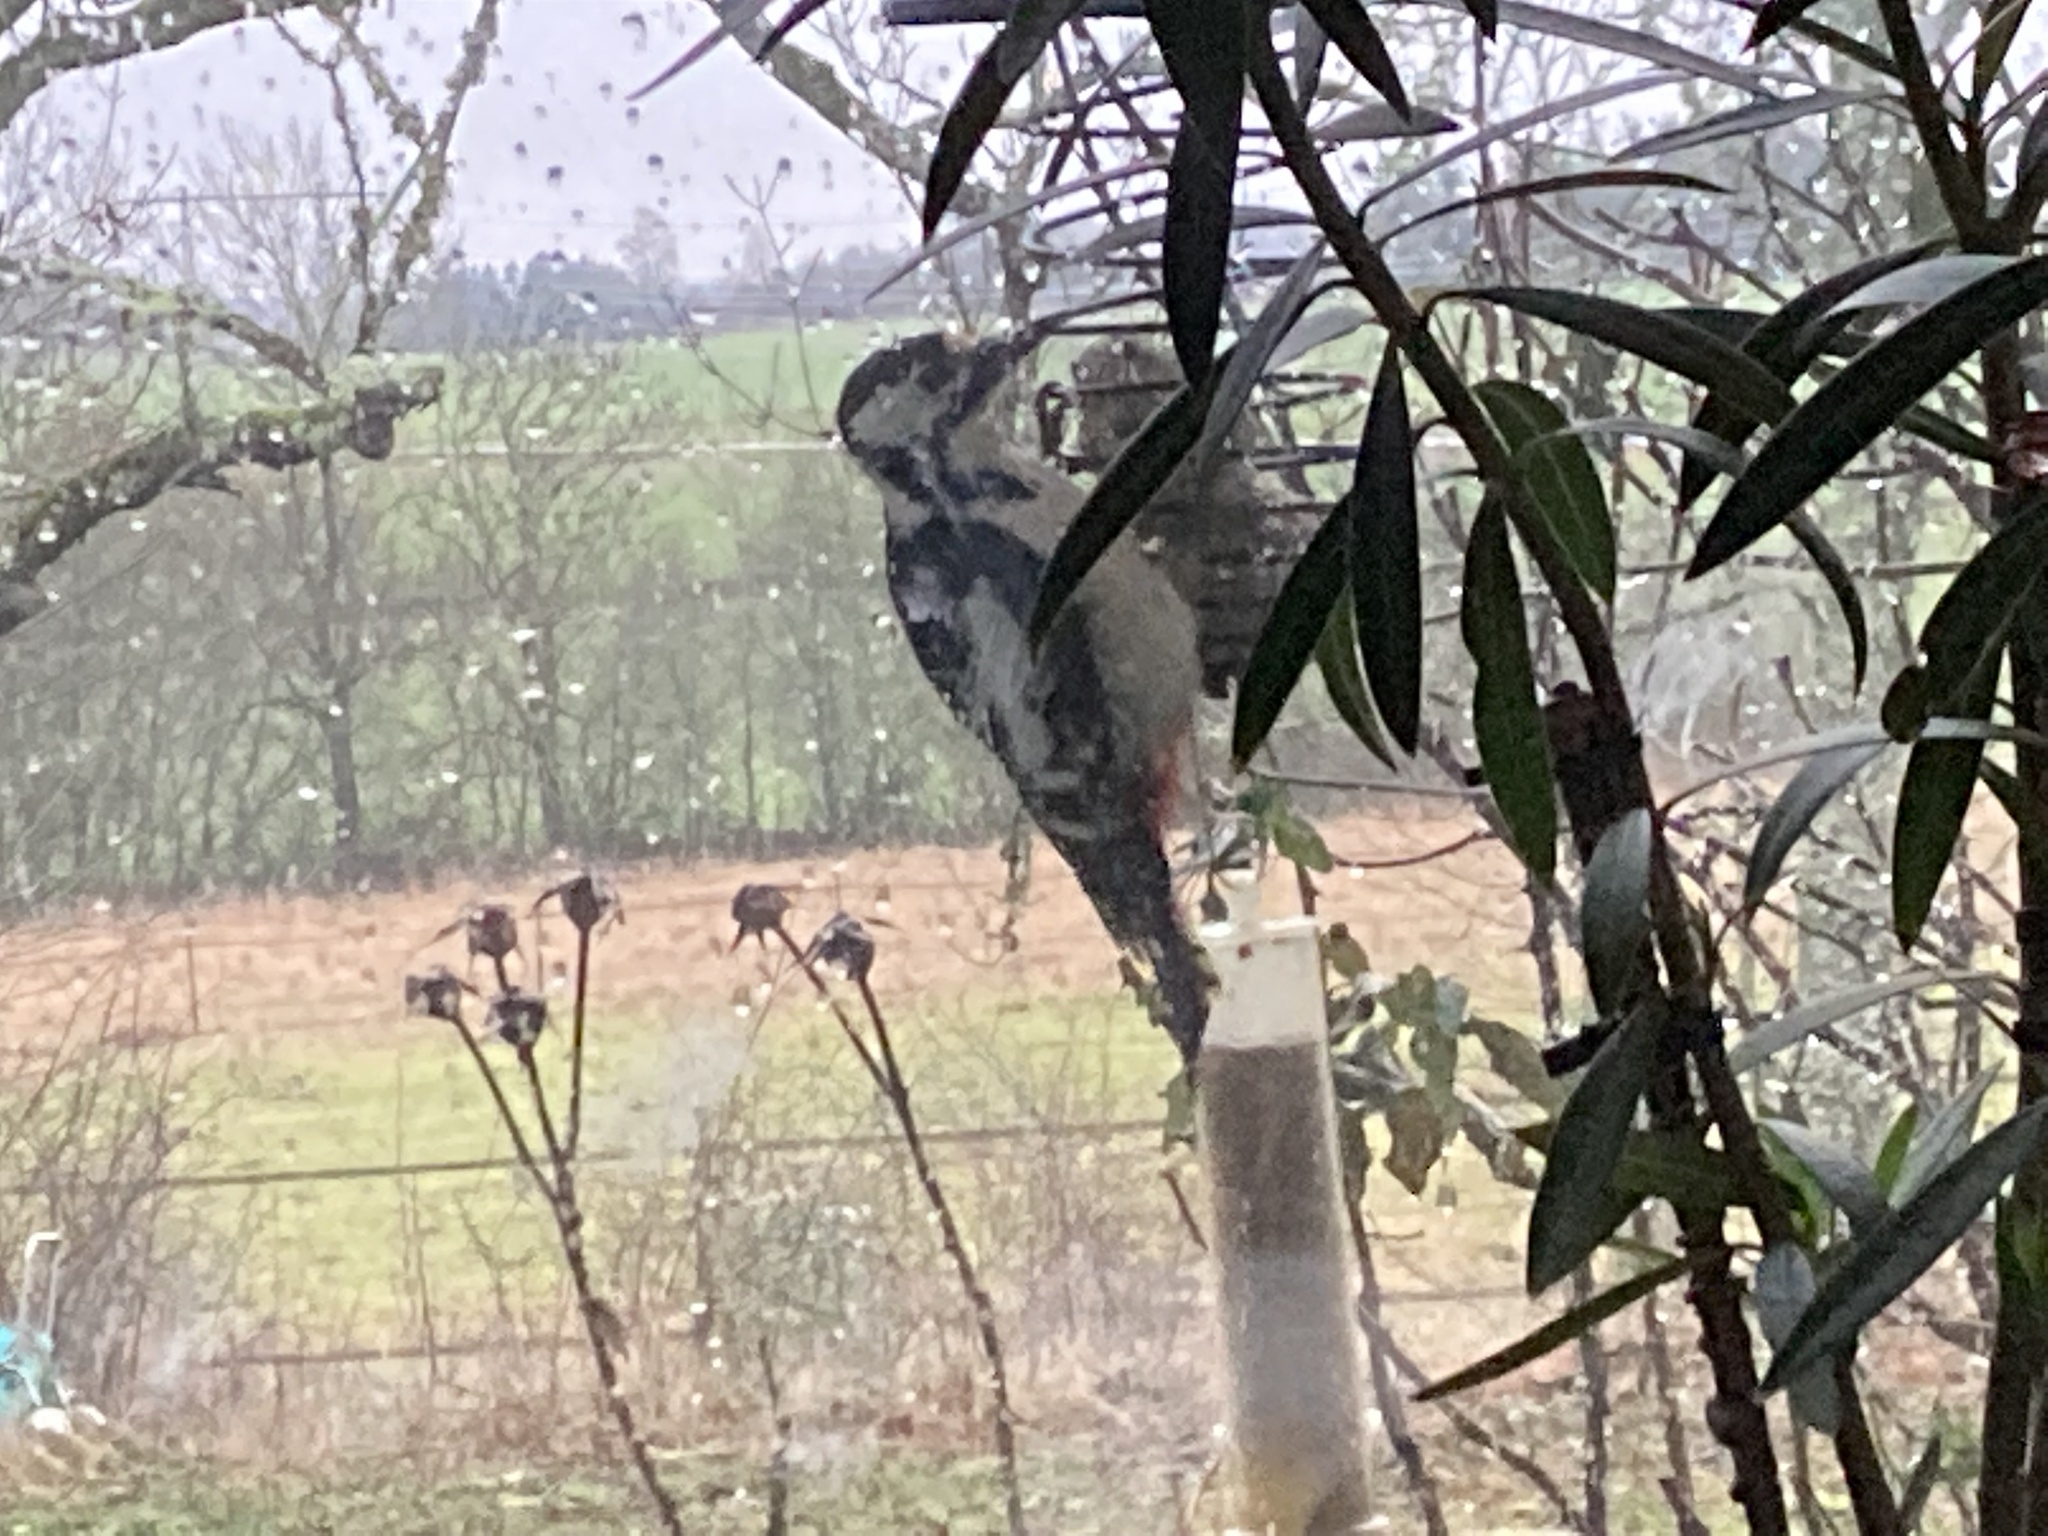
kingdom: Animalia
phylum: Chordata
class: Aves
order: Piciformes
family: Picidae
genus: Dendrocopos
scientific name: Dendrocopos major
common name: Great spotted woodpecker
